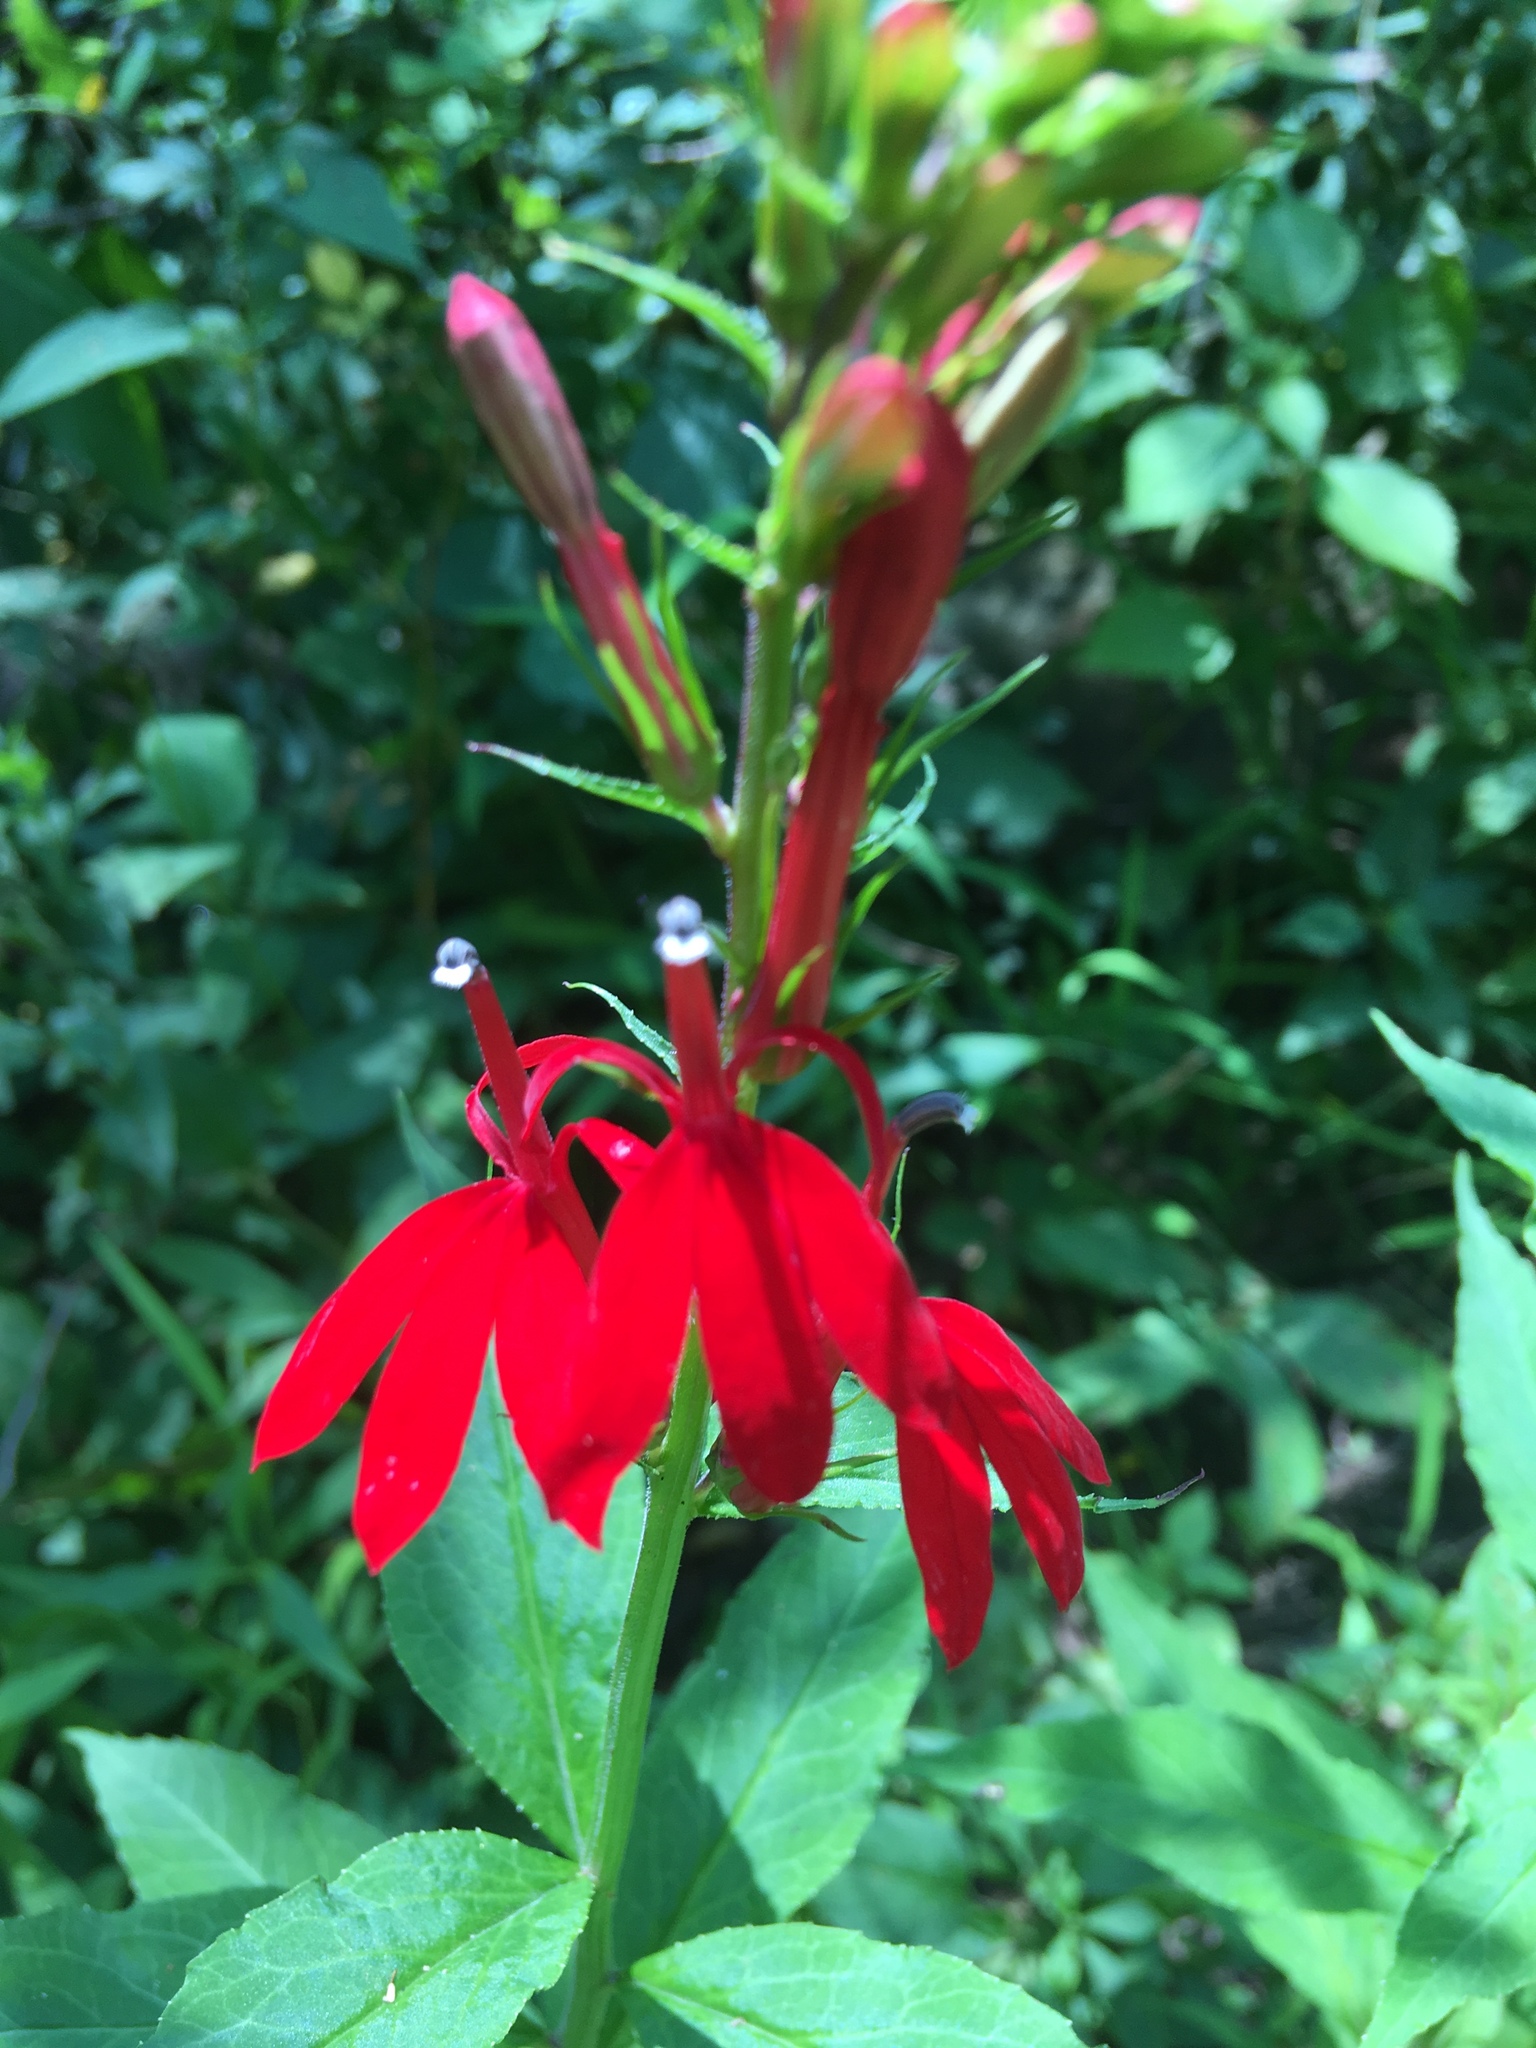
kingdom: Plantae
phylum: Tracheophyta
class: Magnoliopsida
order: Asterales
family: Campanulaceae
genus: Lobelia
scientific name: Lobelia cardinalis
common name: Cardinal flower
